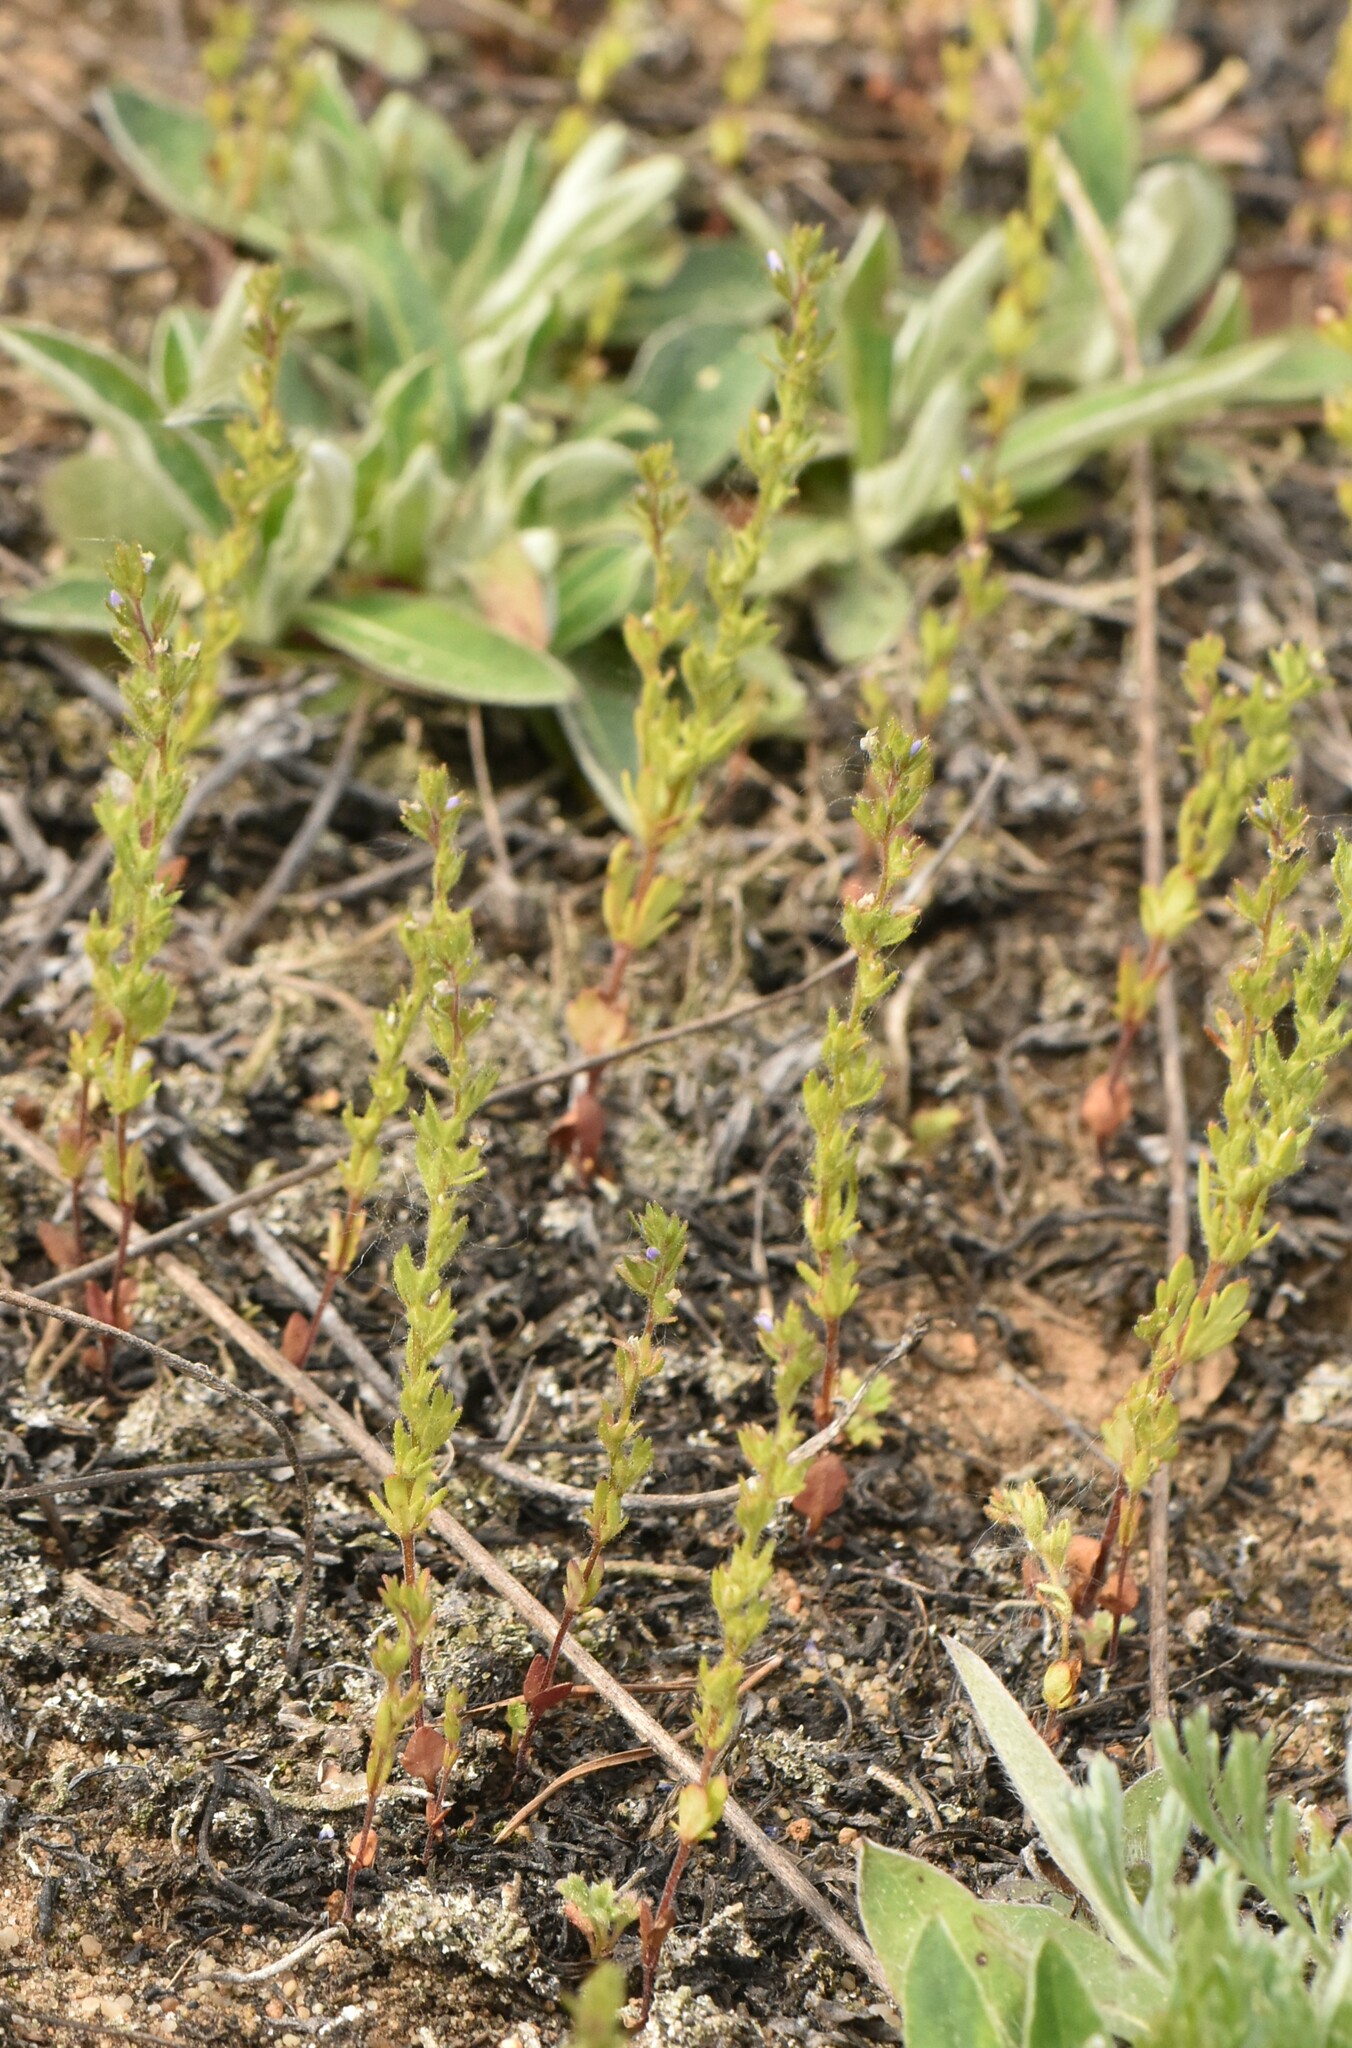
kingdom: Plantae
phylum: Tracheophyta
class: Magnoliopsida
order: Lamiales
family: Plantaginaceae
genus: Veronica
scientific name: Veronica verna
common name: Spring speedwell
